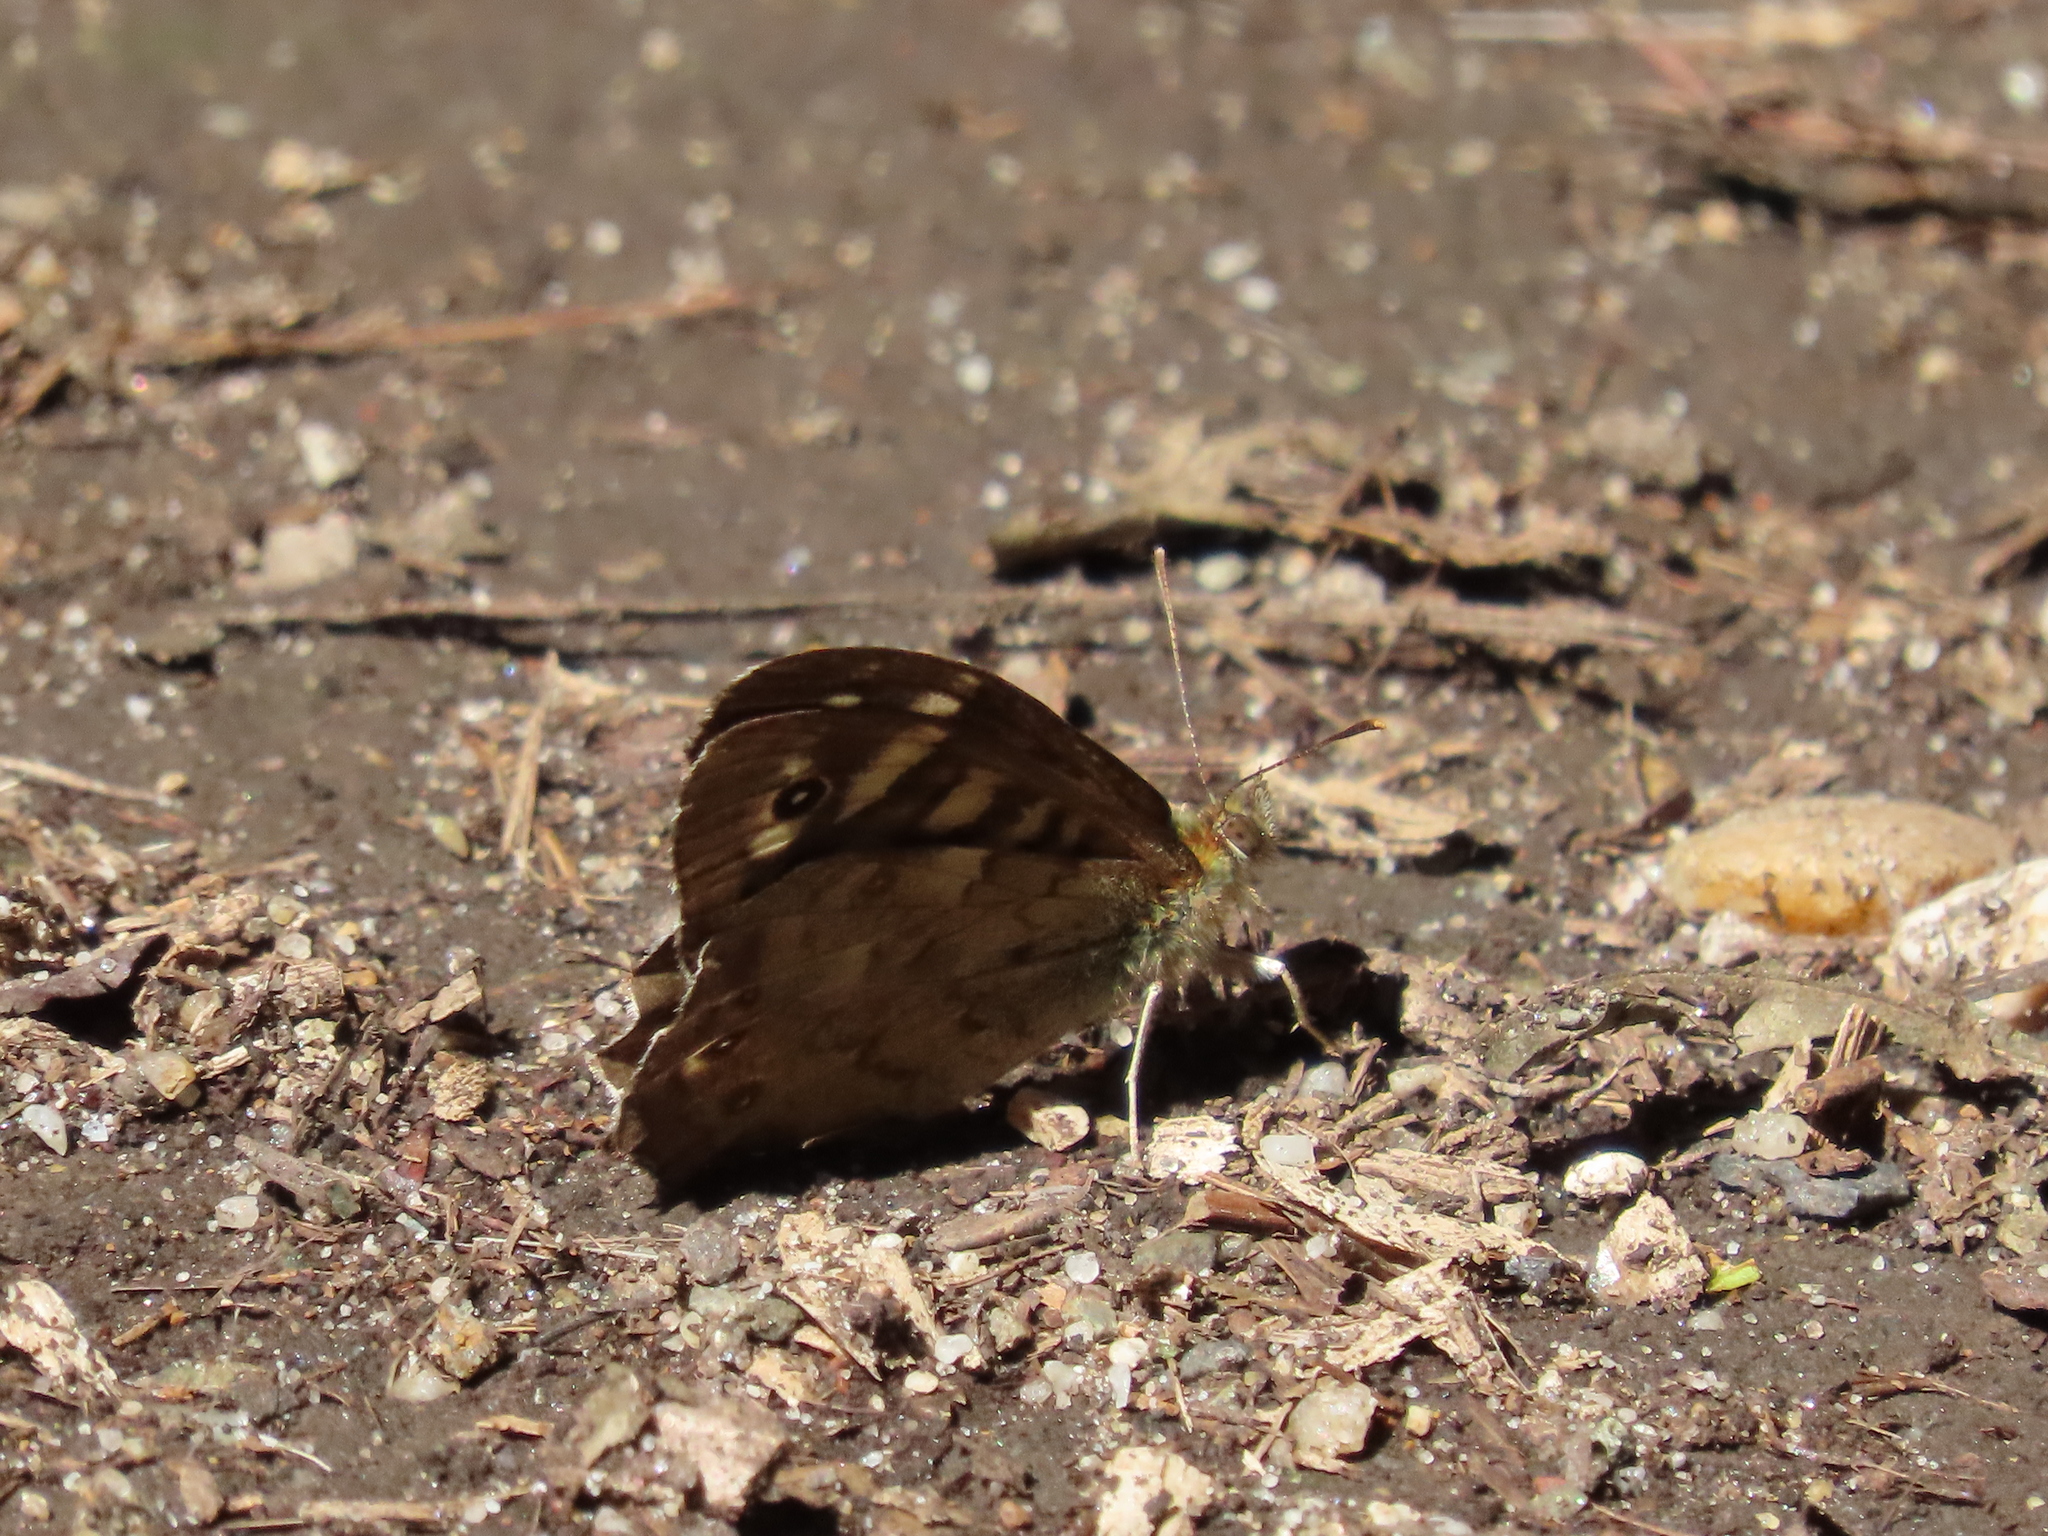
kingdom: Animalia
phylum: Arthropoda
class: Insecta
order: Lepidoptera
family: Nymphalidae
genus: Pararge
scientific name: Pararge aegeria
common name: Speckled wood
